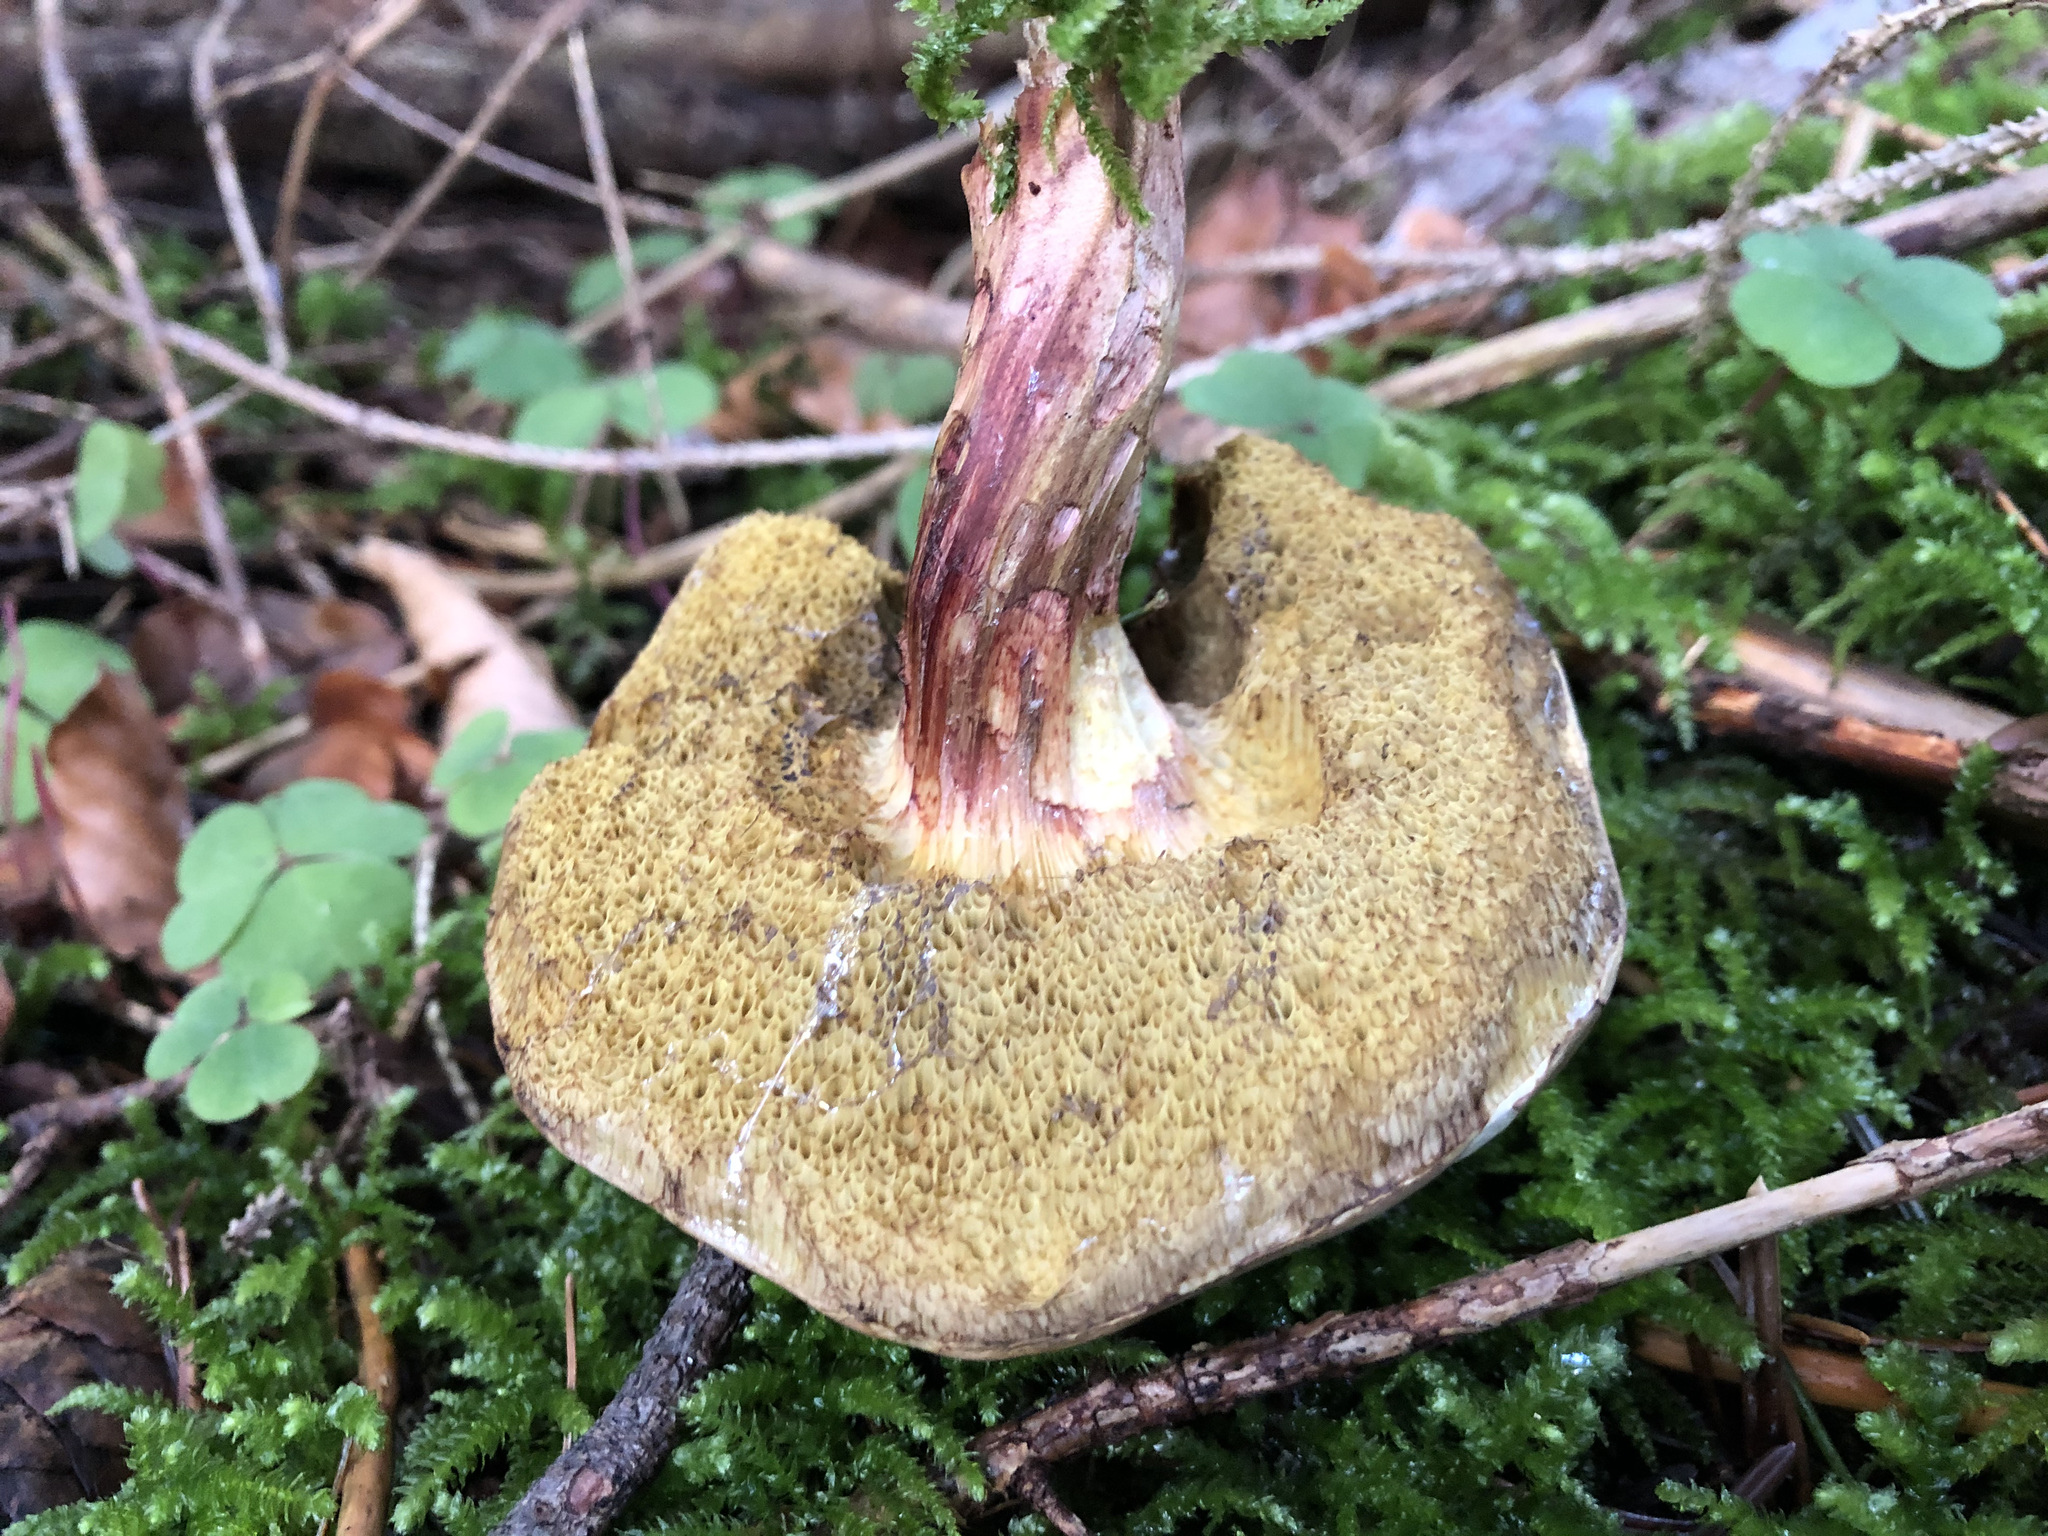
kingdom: Fungi
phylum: Basidiomycota
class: Agaricomycetes
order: Boletales
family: Boletaceae
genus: Xerocomellus
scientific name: Xerocomellus chrysenteron
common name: Red-cracking bolete
